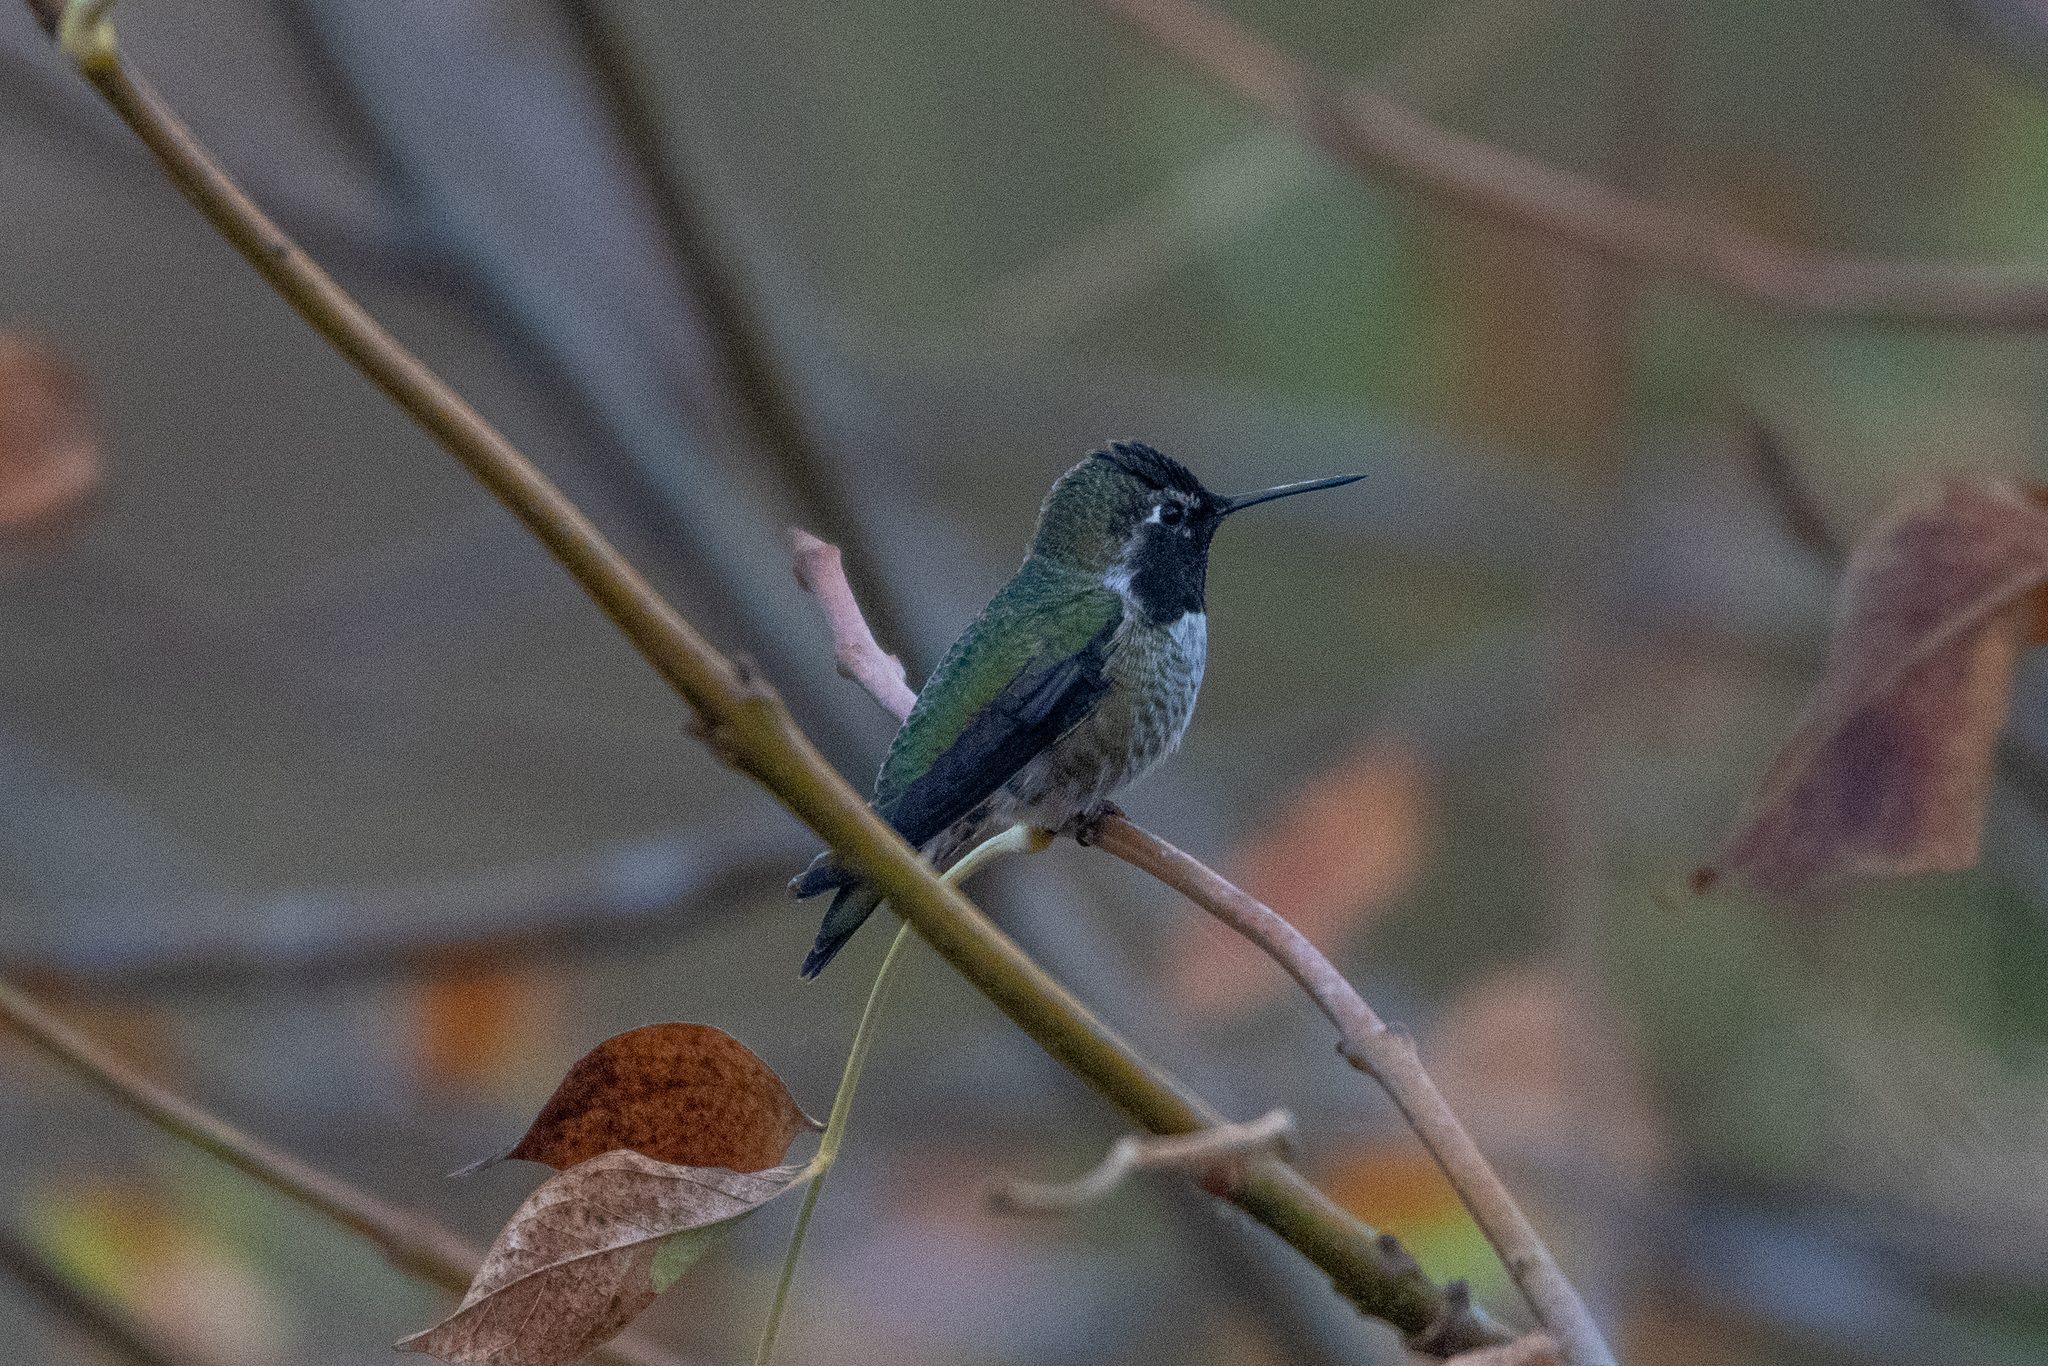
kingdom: Animalia
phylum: Chordata
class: Aves
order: Apodiformes
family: Trochilidae
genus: Calypte
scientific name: Calypte anna
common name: Anna's hummingbird
